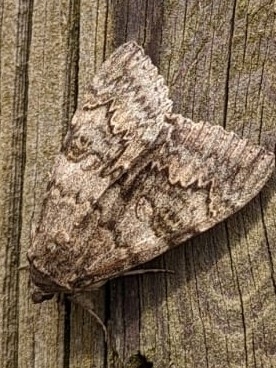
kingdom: Animalia
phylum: Arthropoda
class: Insecta
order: Lepidoptera
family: Erebidae
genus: Catocala
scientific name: Catocala nupta
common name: Red underwing
